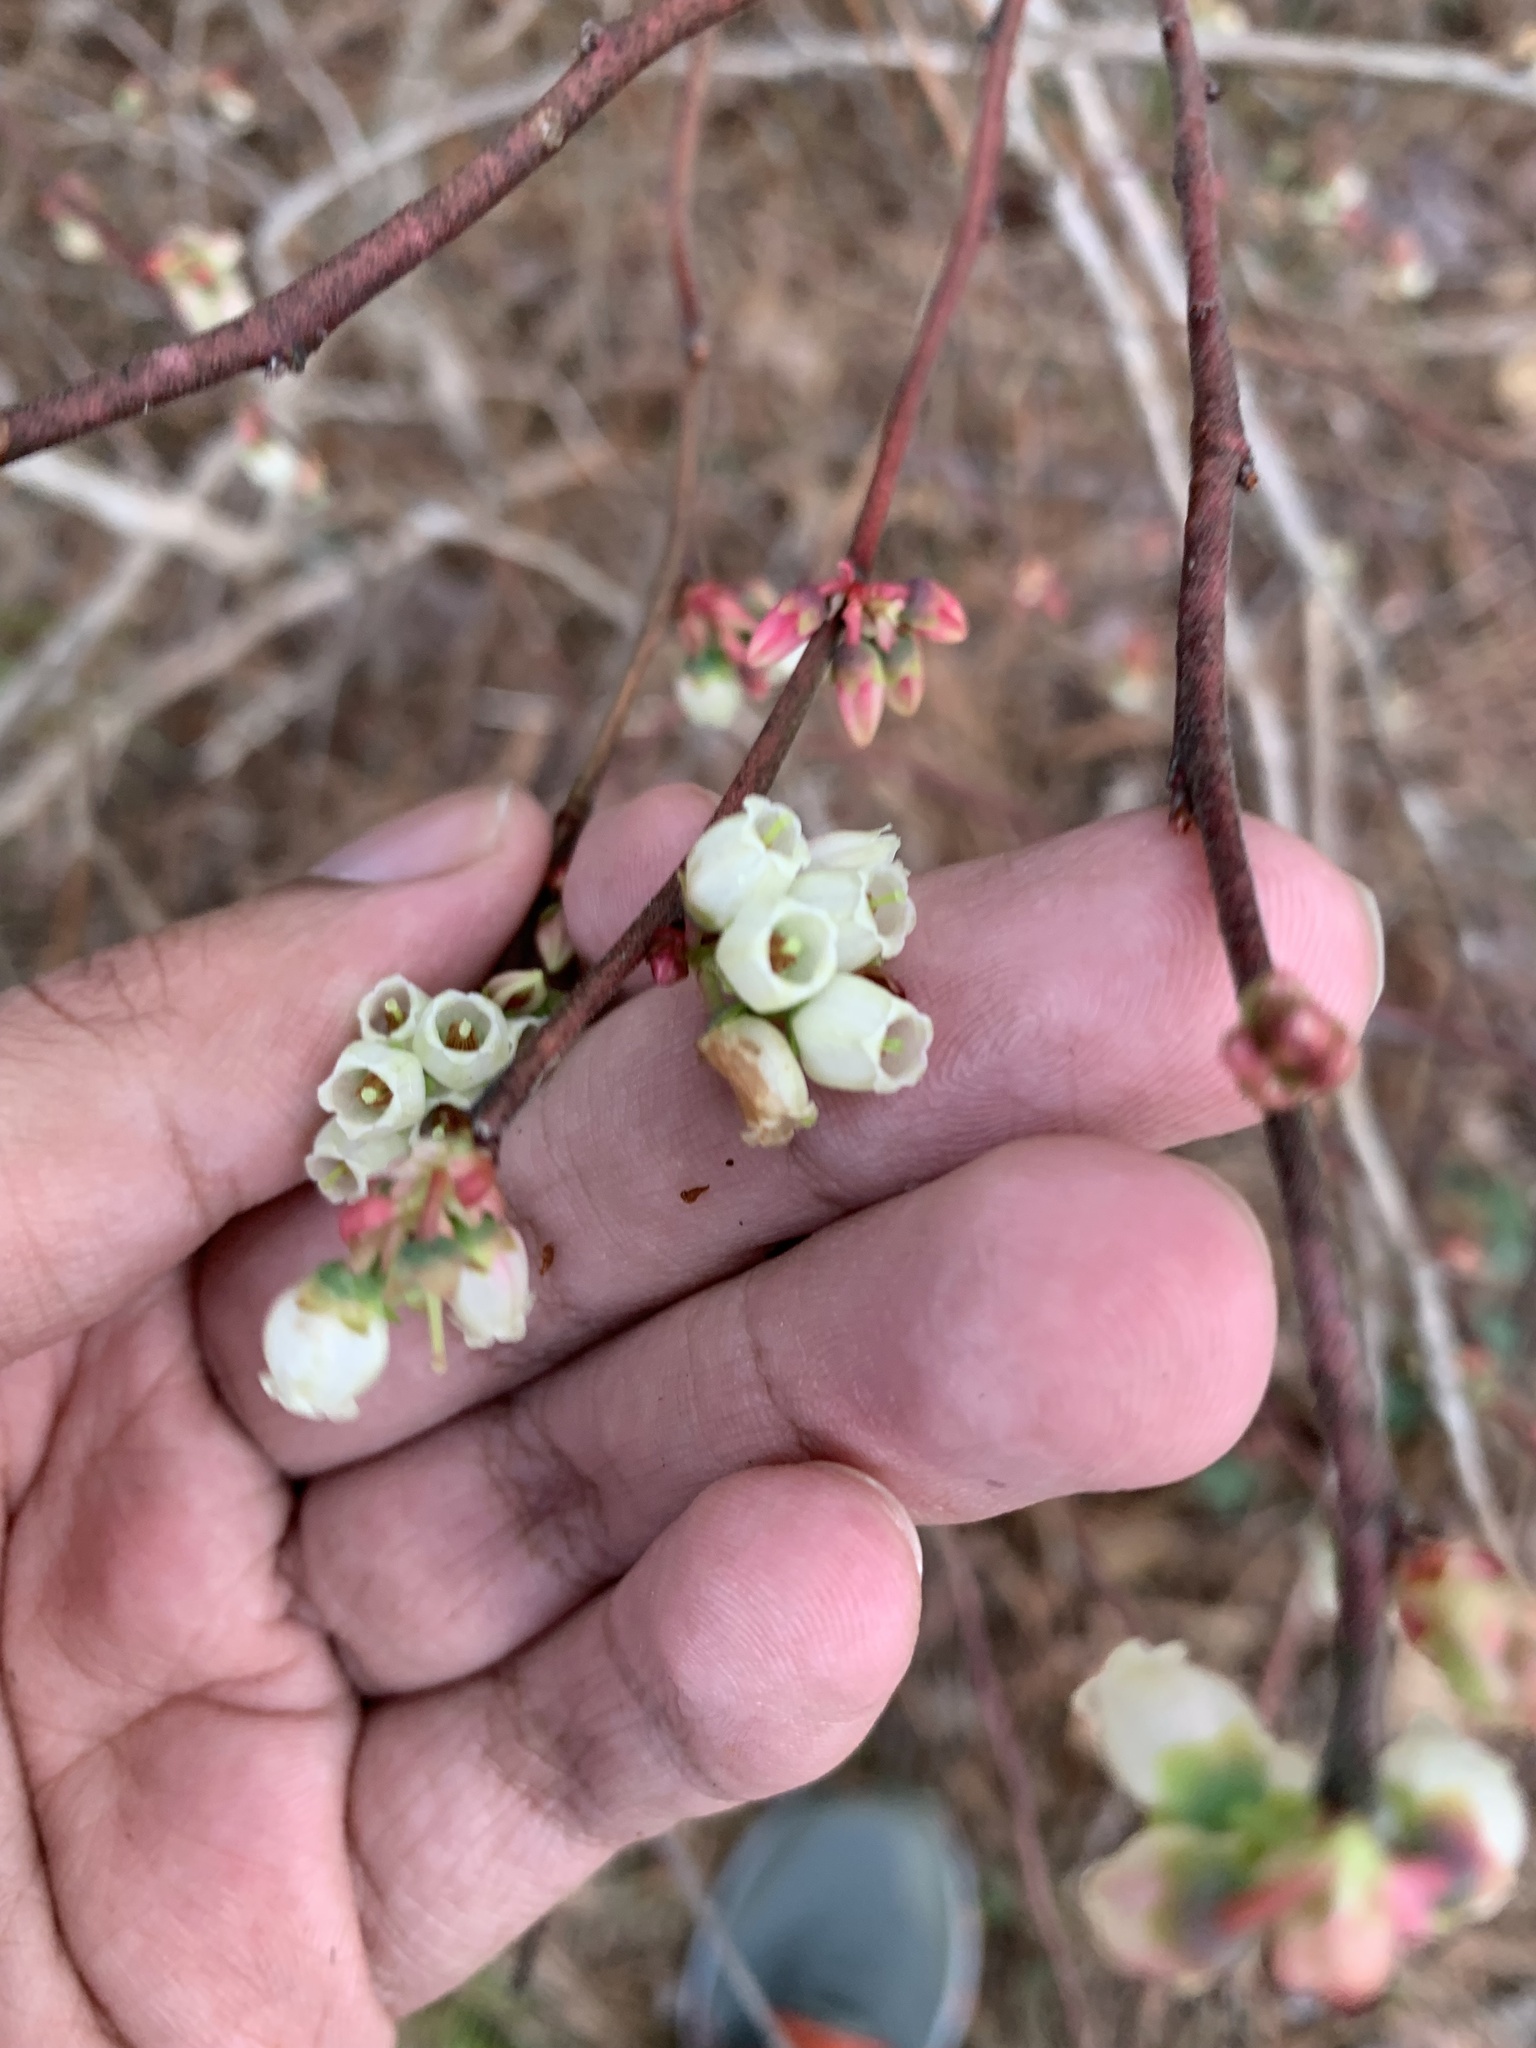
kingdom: Plantae
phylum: Tracheophyta
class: Magnoliopsida
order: Ericales
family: Ericaceae
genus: Vaccinium
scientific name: Vaccinium corymbosum
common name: Blueberry
